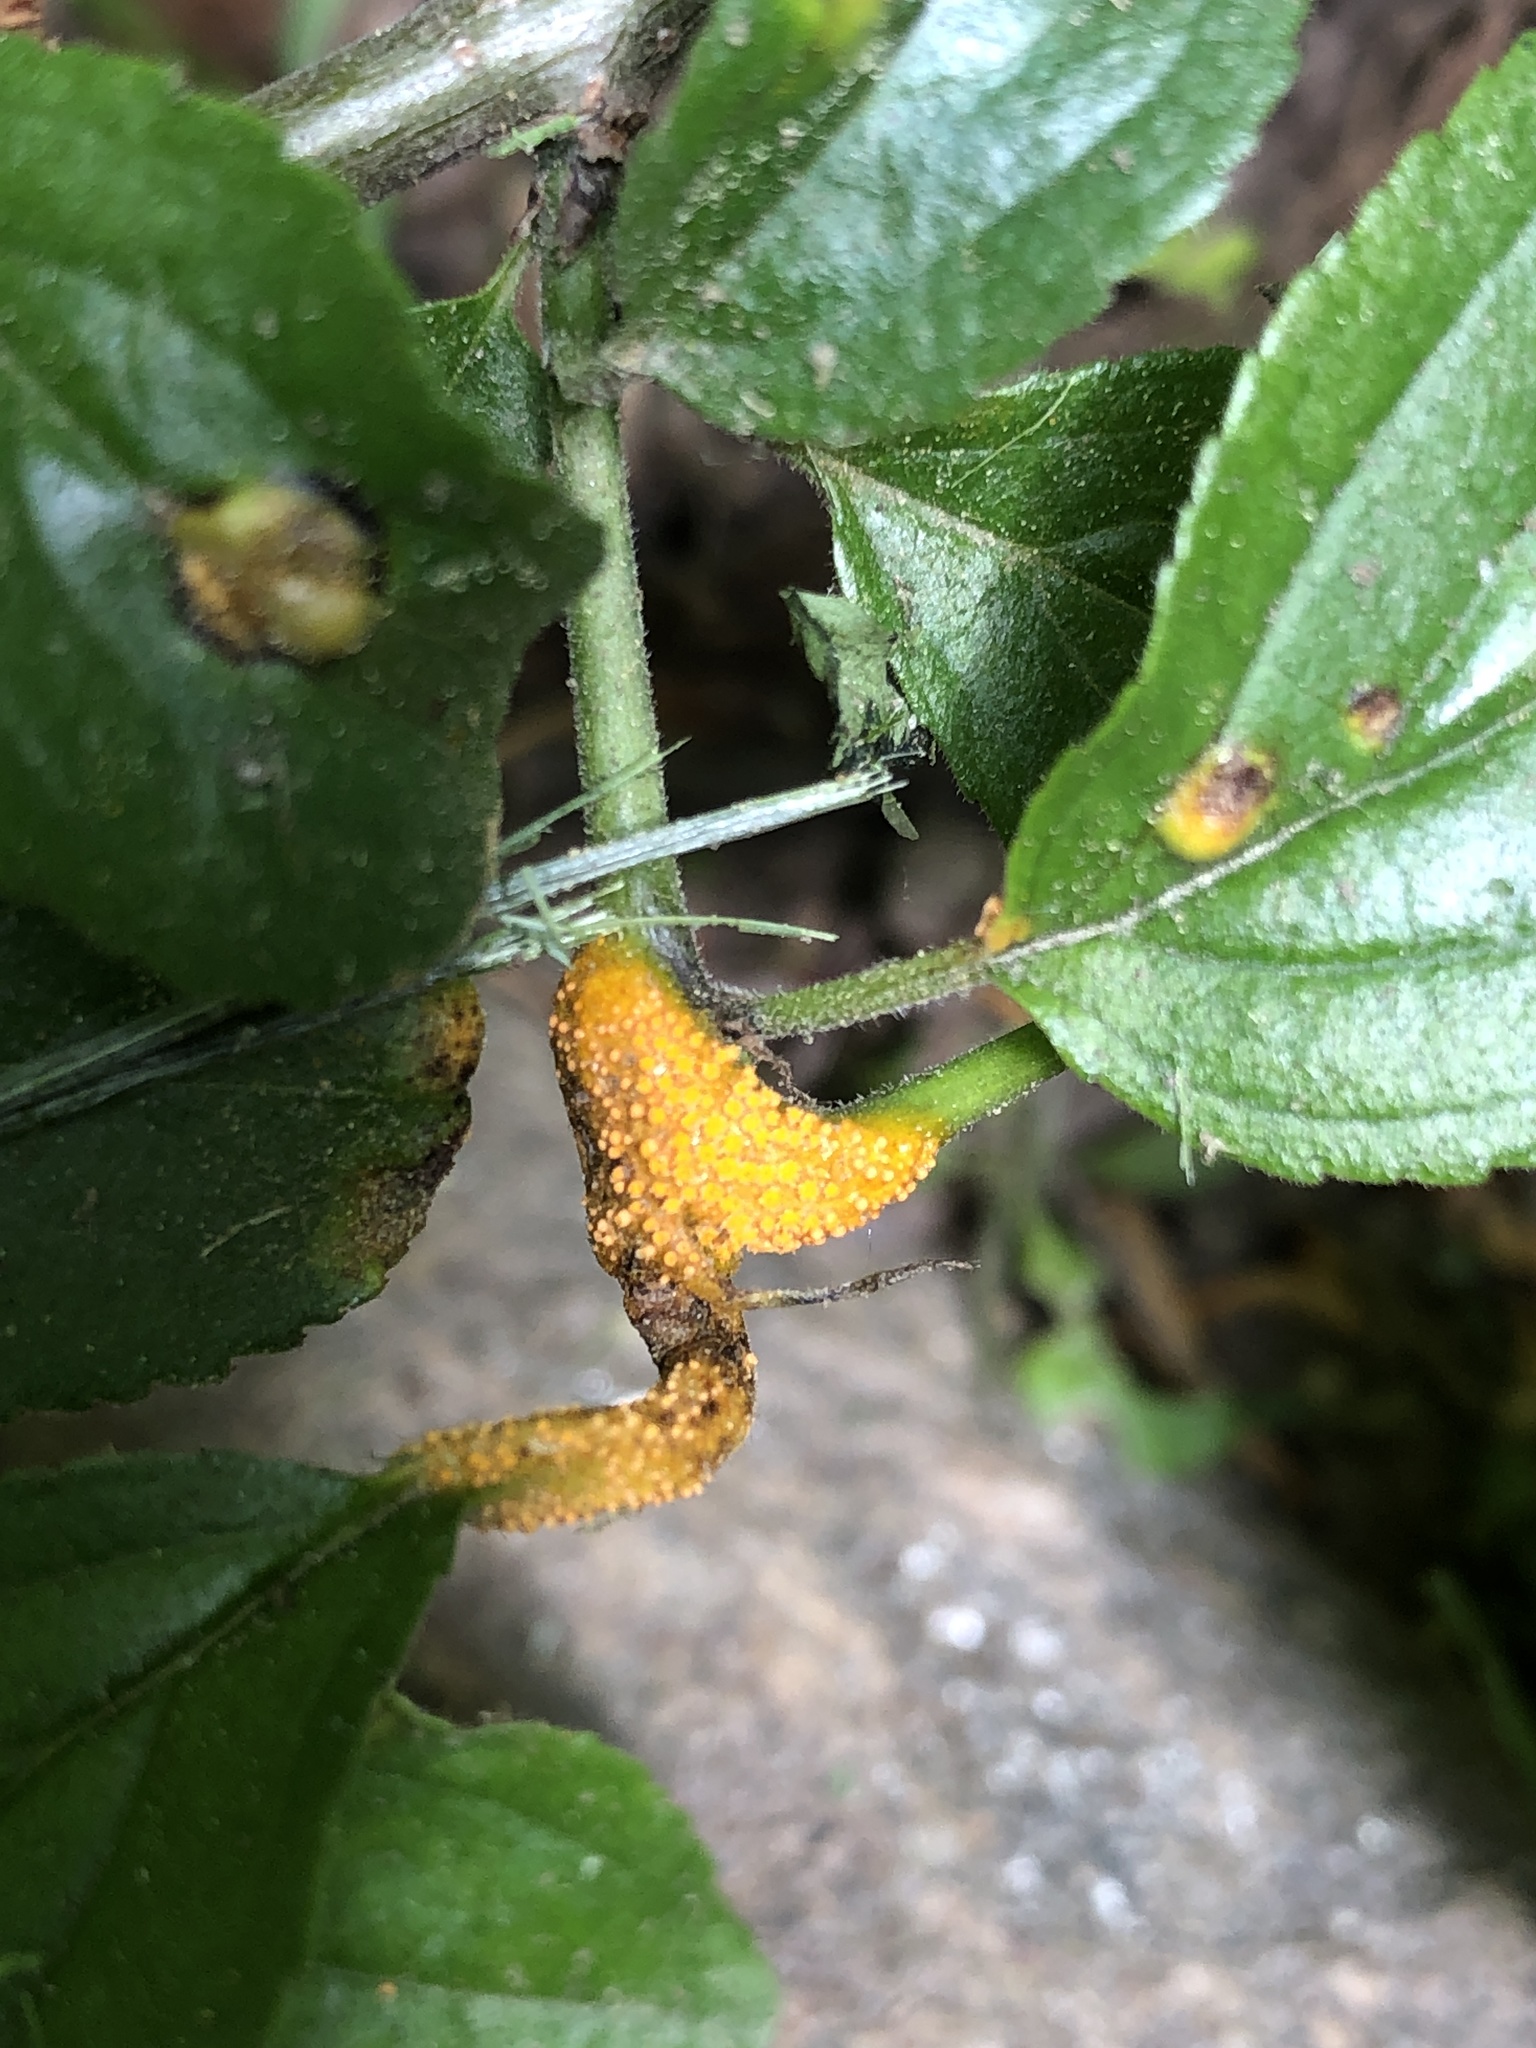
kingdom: Fungi
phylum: Basidiomycota
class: Pucciniomycetes
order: Pucciniales
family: Pucciniaceae
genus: Puccinia
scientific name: Puccinia coronata
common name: Crown rust
